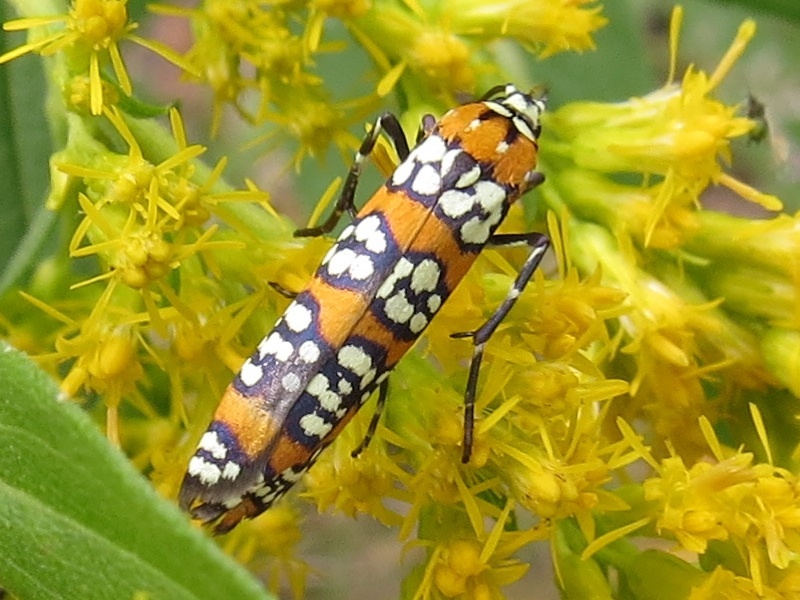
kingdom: Animalia
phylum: Arthropoda
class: Insecta
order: Lepidoptera
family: Attevidae
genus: Atteva
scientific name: Atteva punctella
